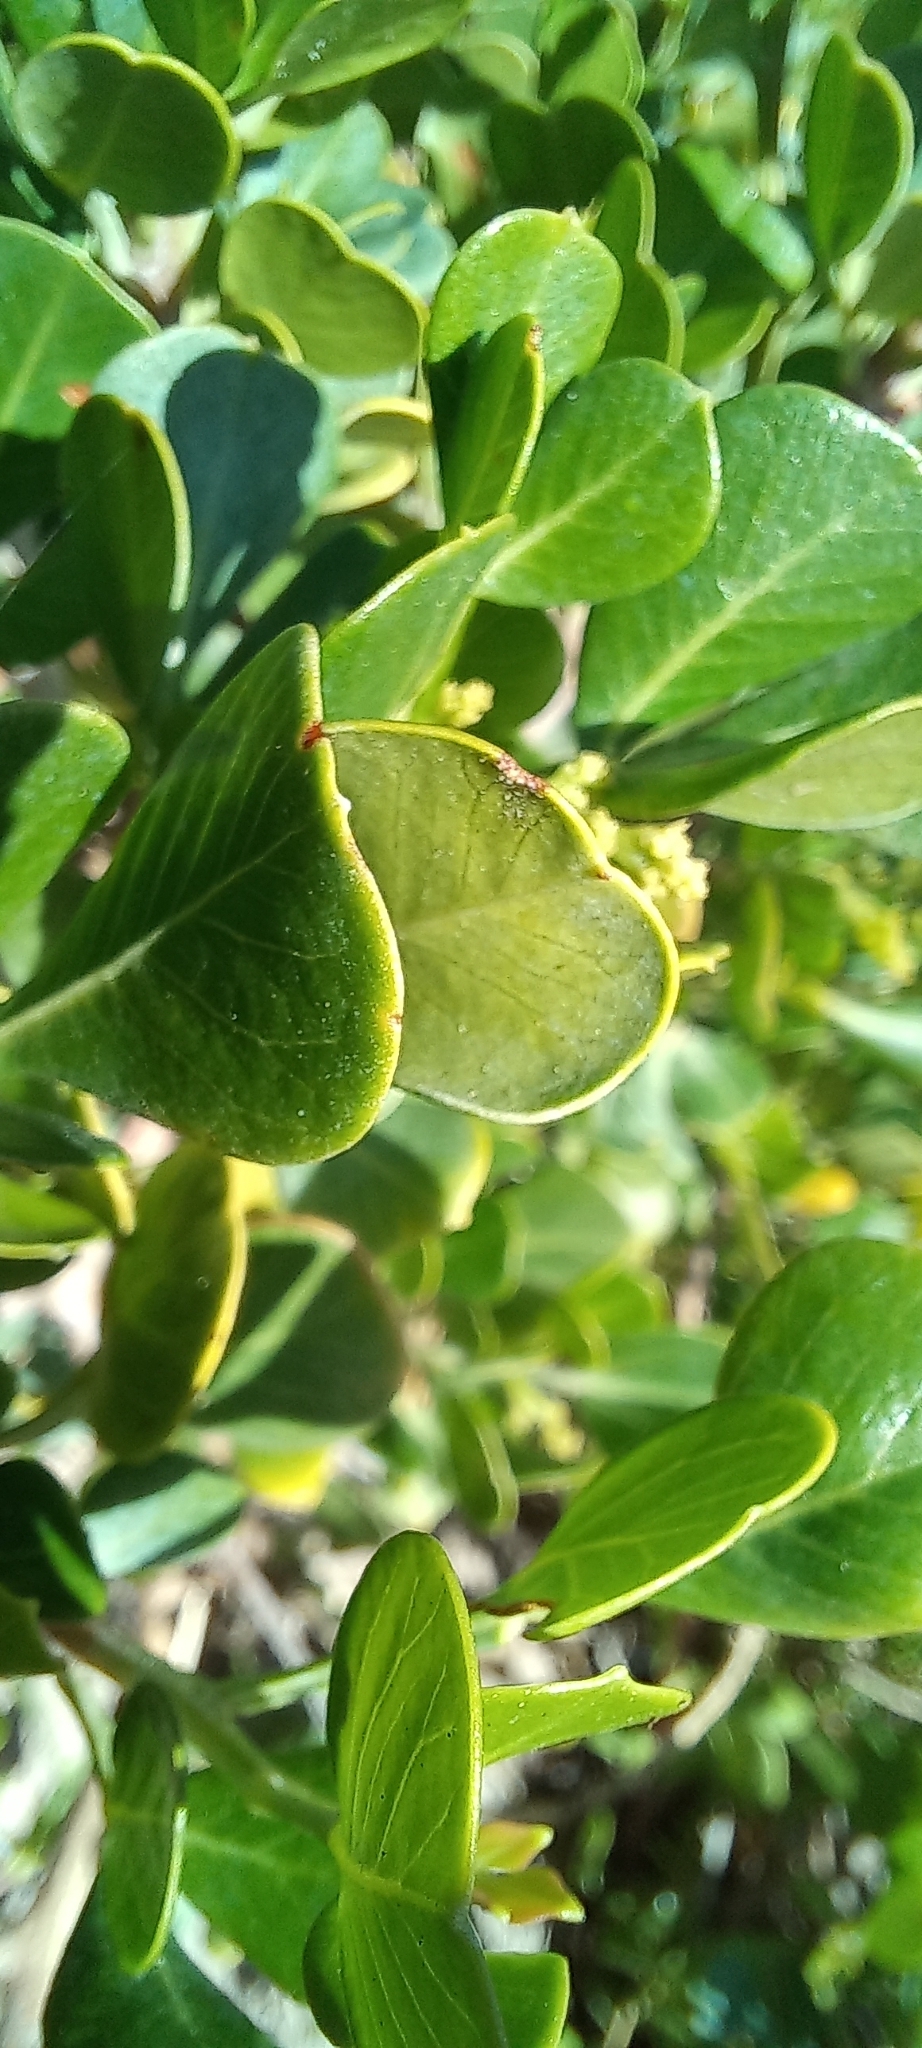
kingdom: Plantae
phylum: Tracheophyta
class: Magnoliopsida
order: Sapindales
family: Anacardiaceae
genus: Searsia
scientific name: Searsia glauca
